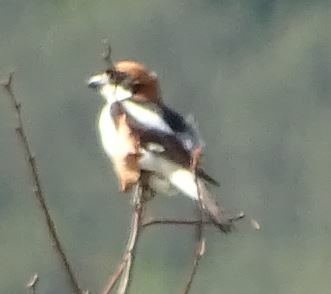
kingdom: Animalia
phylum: Chordata
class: Aves
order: Passeriformes
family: Laniidae
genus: Lanius
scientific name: Lanius senator
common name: Woodchat shrike
